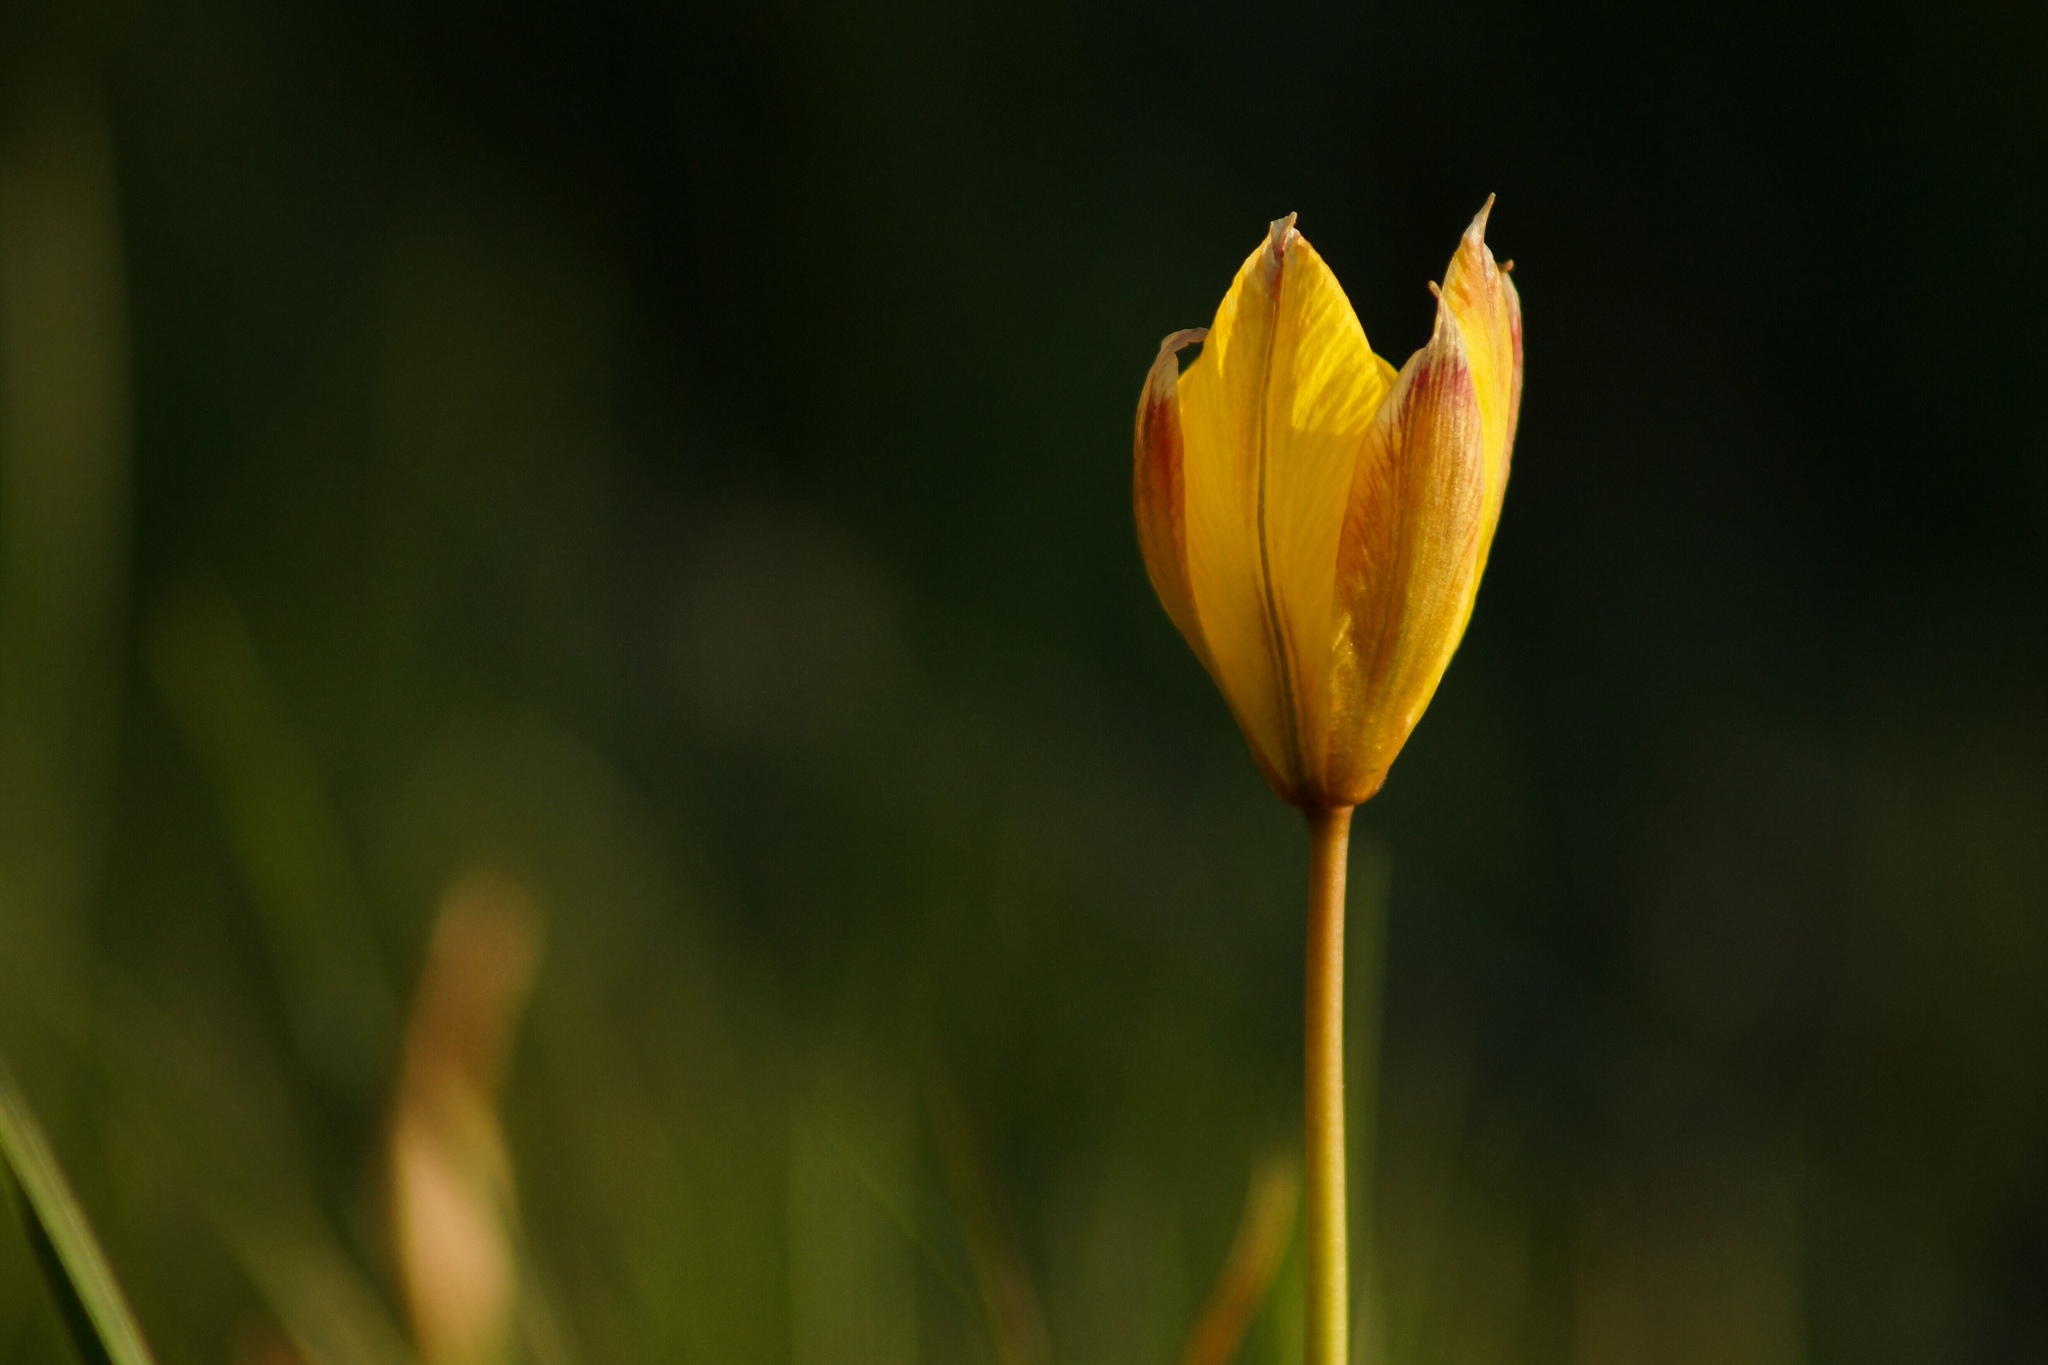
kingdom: Plantae
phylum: Tracheophyta
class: Liliopsida
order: Liliales
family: Liliaceae
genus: Tulipa
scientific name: Tulipa sylvestris
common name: Wild tulip
